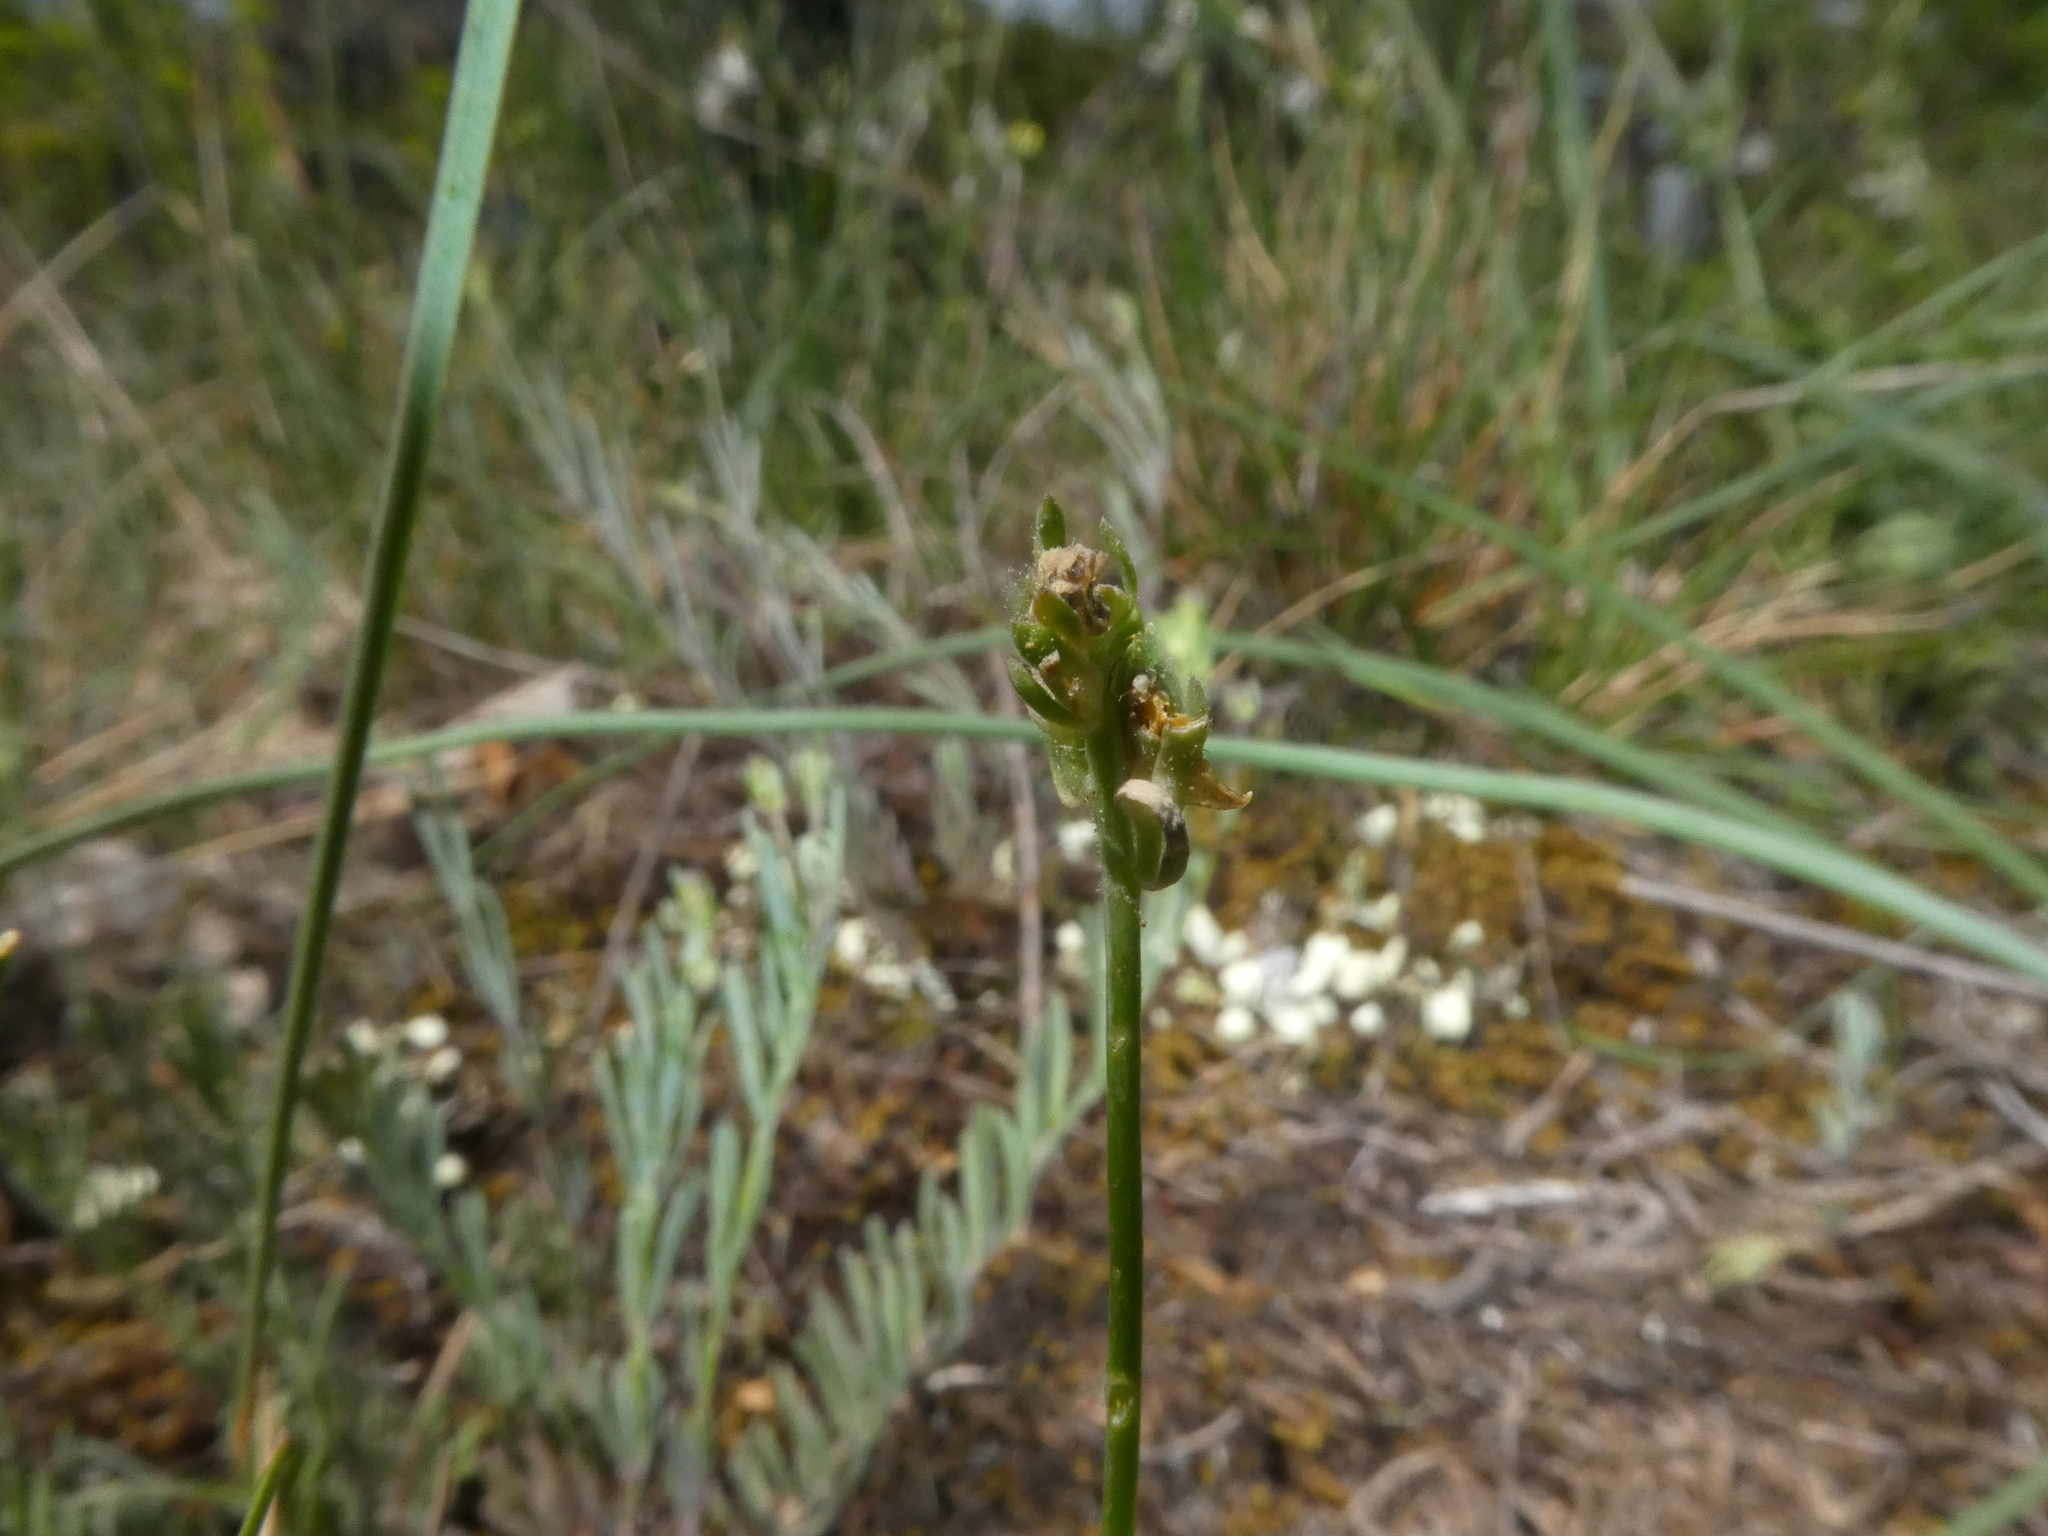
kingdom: Plantae
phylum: Tracheophyta
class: Magnoliopsida
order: Lamiales
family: Plantaginaceae
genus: Linaria
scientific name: Linaria supina
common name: Prostrate toadflax
